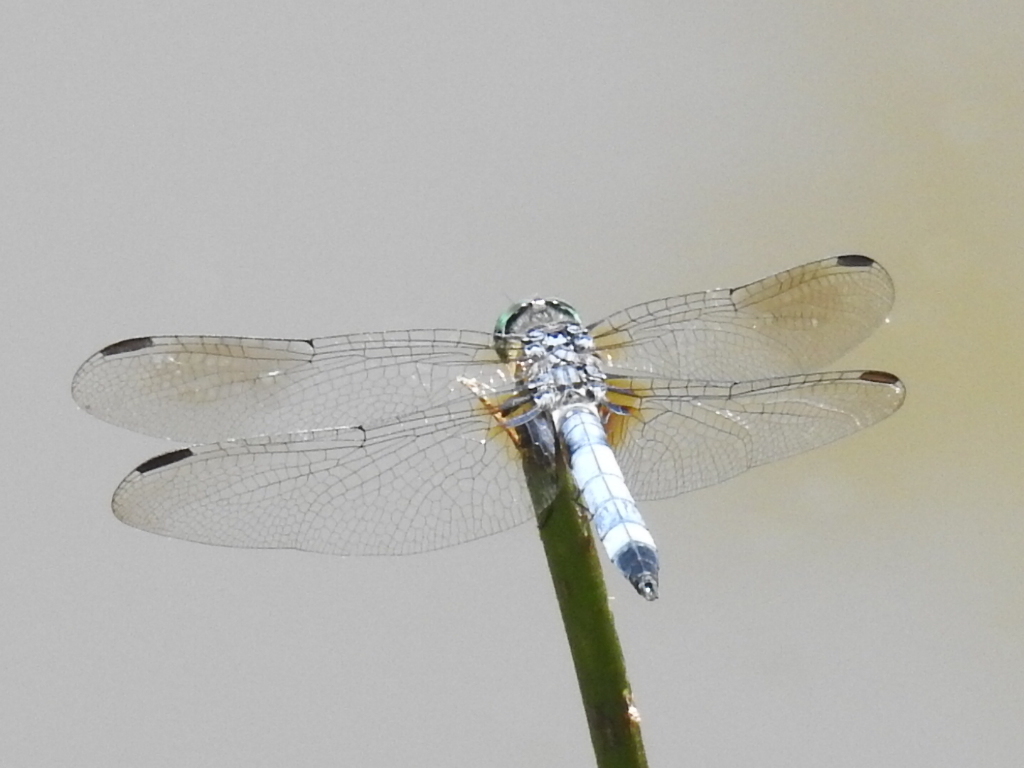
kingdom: Animalia
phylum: Arthropoda
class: Insecta
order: Odonata
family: Libellulidae
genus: Pachydiplax
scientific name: Pachydiplax longipennis
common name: Blue dasher
